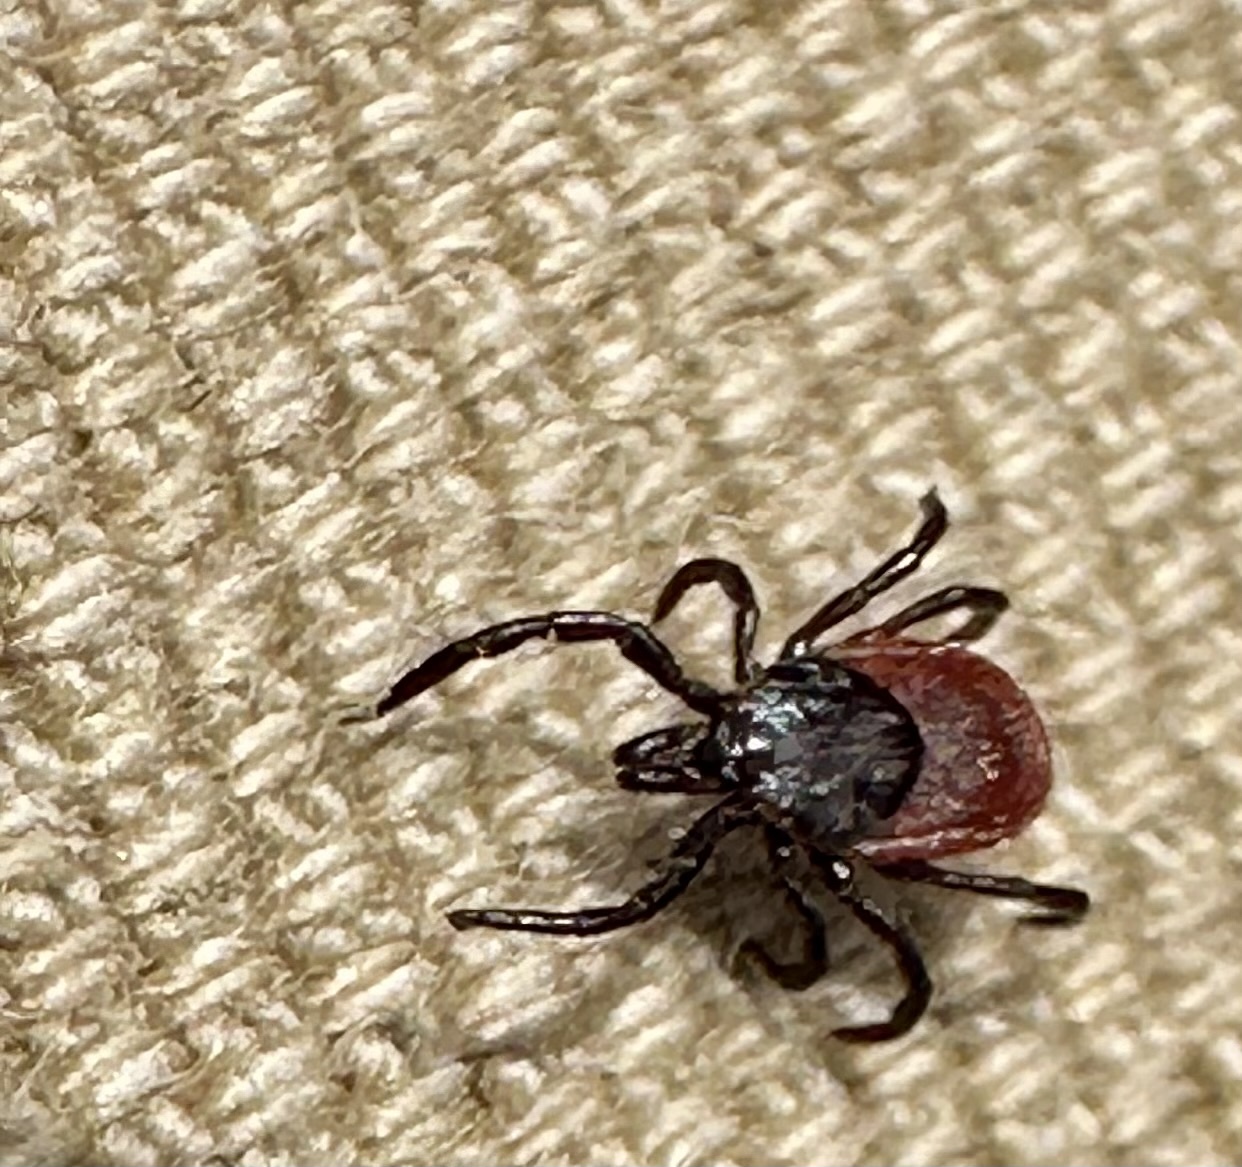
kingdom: Animalia
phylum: Arthropoda
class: Arachnida
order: Ixodida
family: Ixodidae
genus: Ixodes
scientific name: Ixodes pacificus
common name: California black-legged tick
